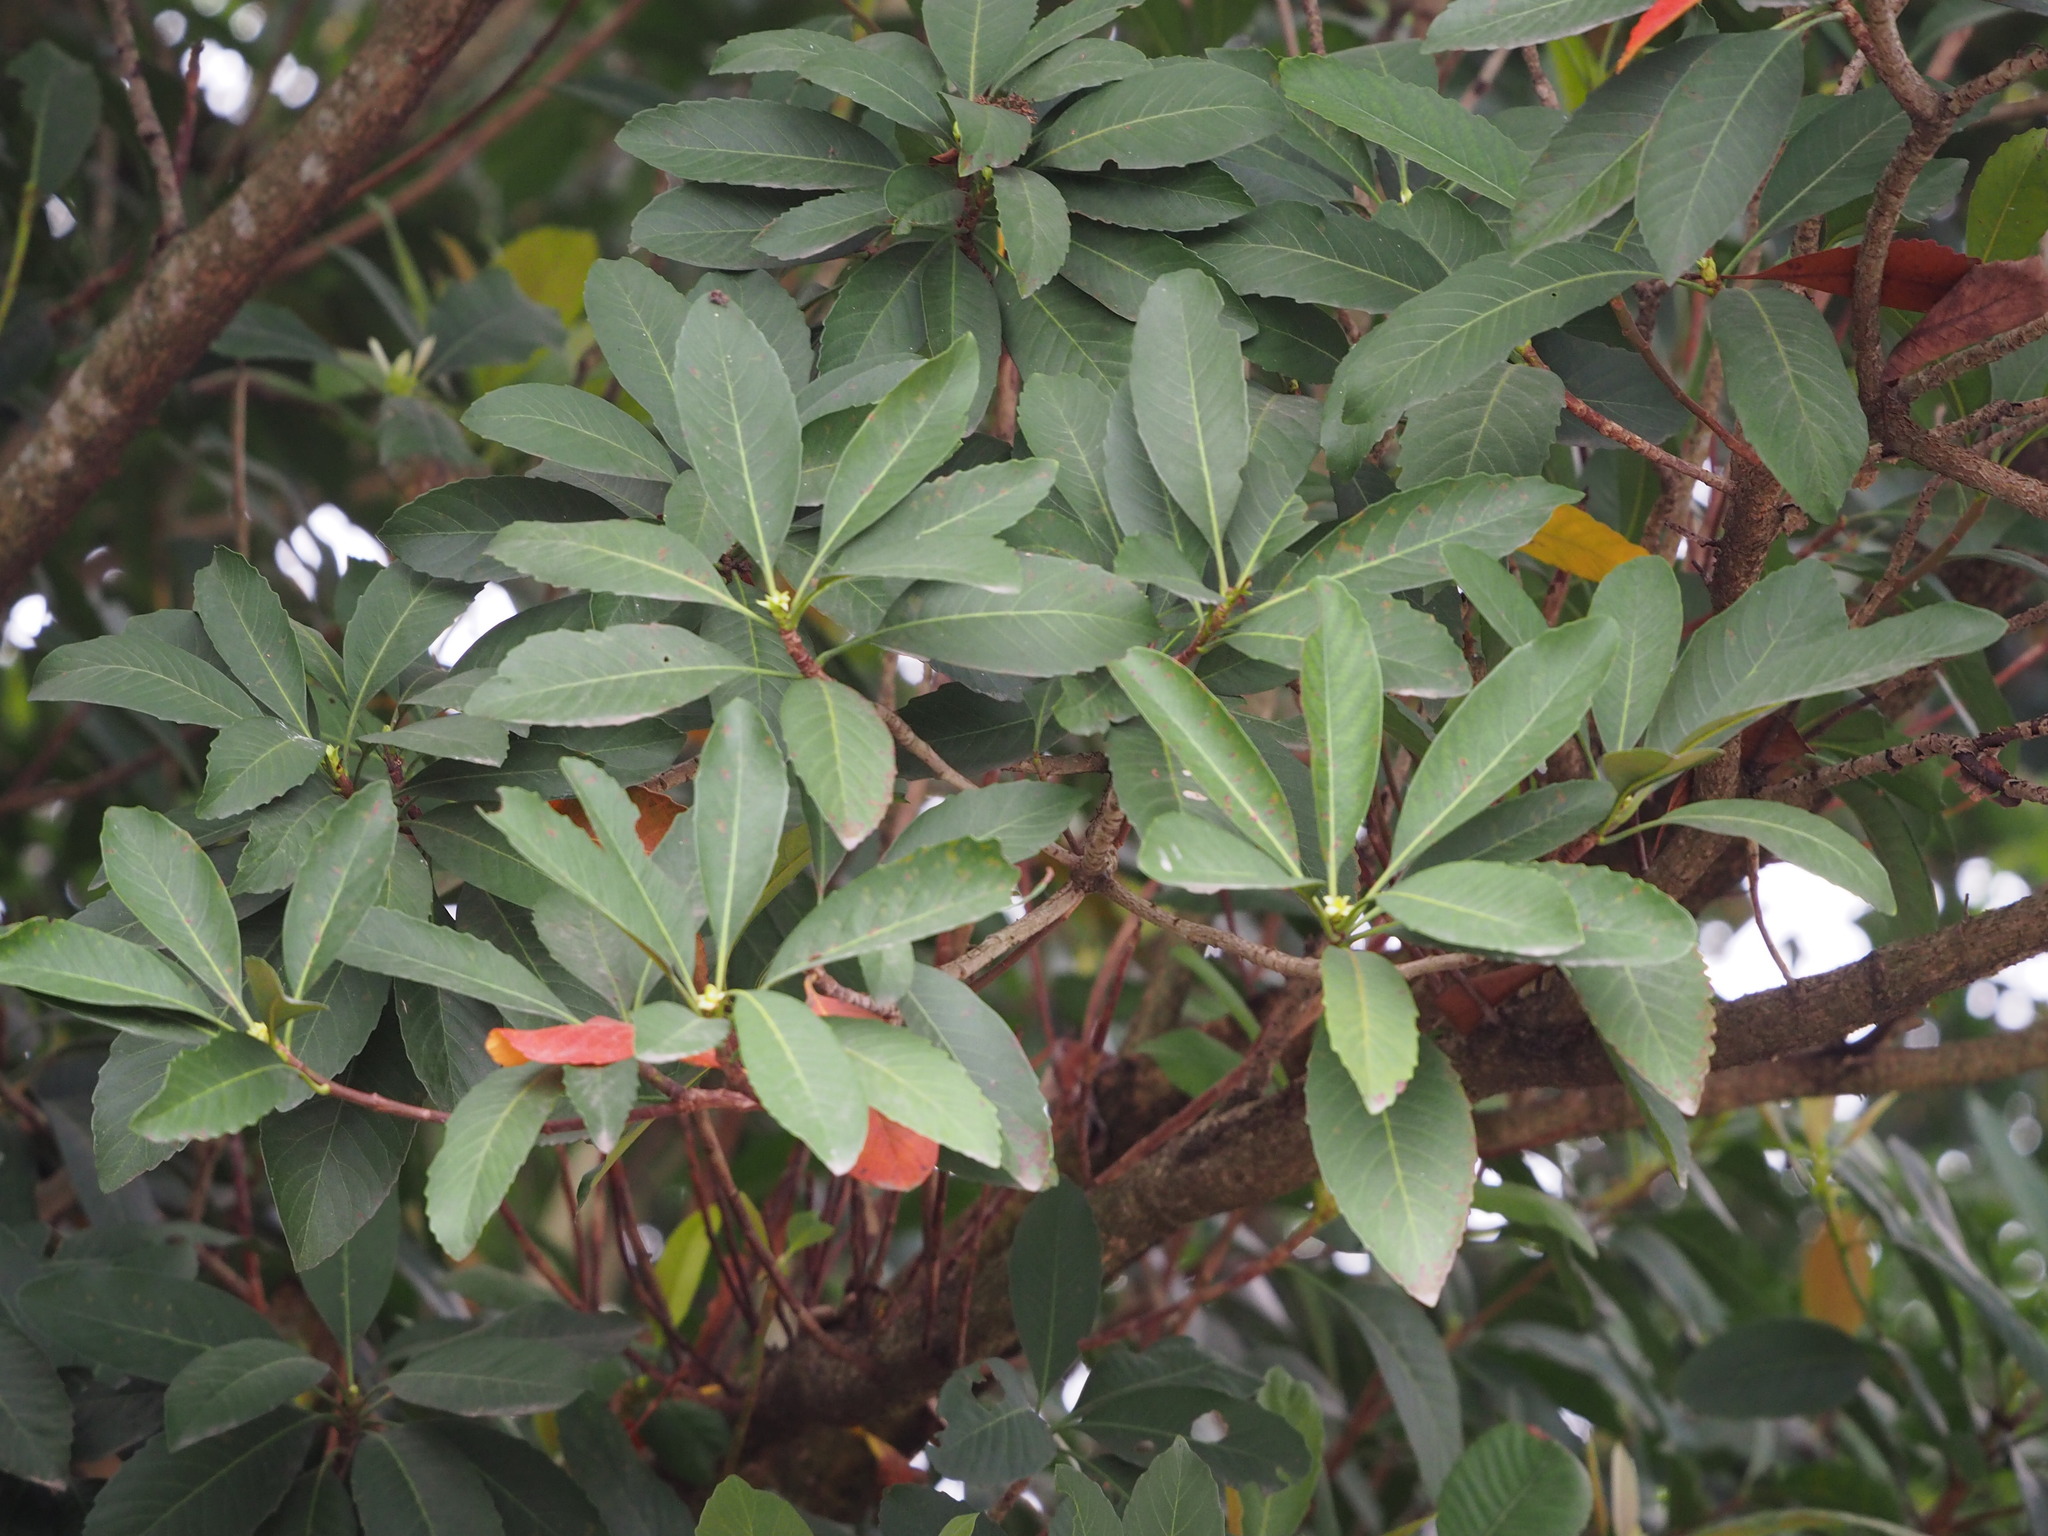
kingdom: Plantae
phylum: Tracheophyta
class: Magnoliopsida
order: Rosales
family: Rosaceae
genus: Rhaphiolepis
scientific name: Rhaphiolepis deflexa
